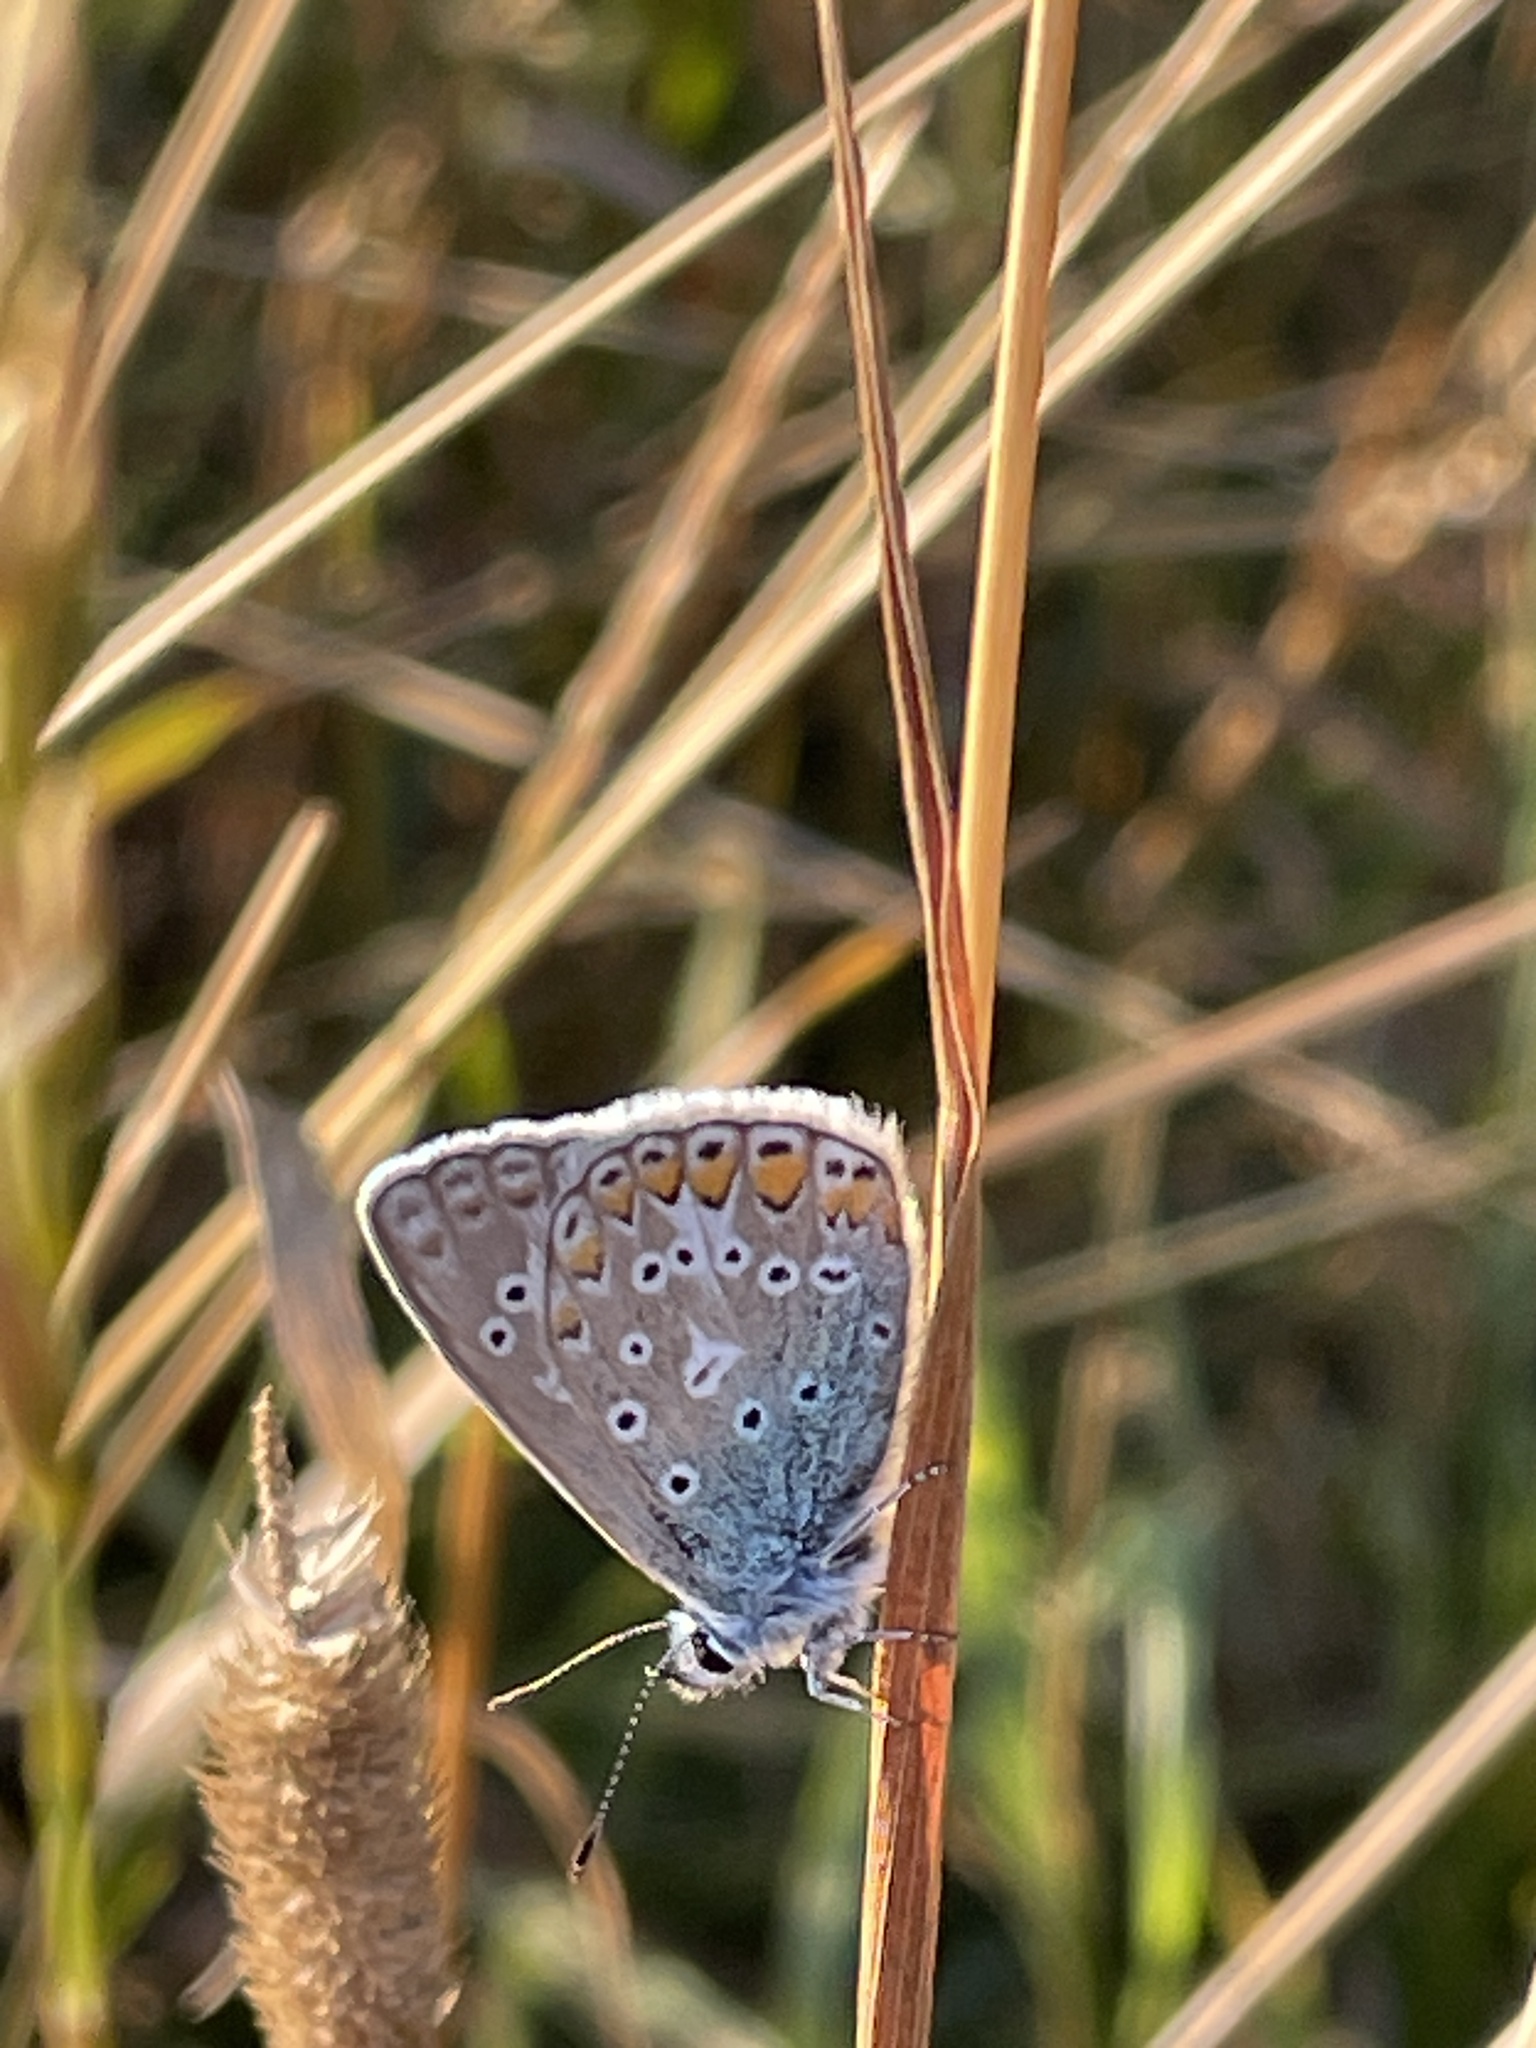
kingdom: Animalia
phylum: Arthropoda
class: Insecta
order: Lepidoptera
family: Lycaenidae
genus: Polyommatus
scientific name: Polyommatus icarus
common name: Common blue
